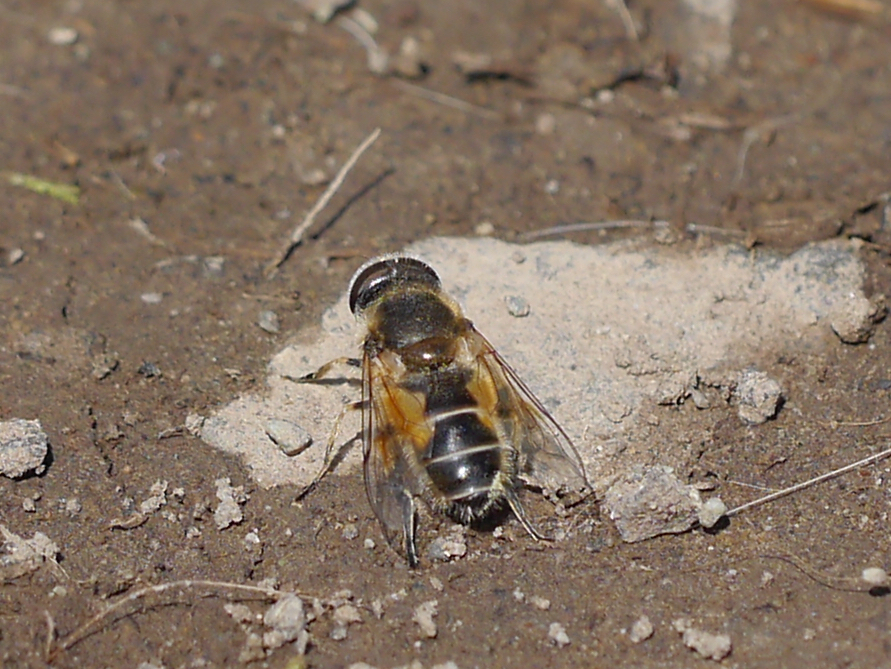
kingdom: Animalia
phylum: Arthropoda
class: Insecta
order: Diptera
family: Syrphidae
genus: Eristalis
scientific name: Eristalis arbustorum
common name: Hover fly
